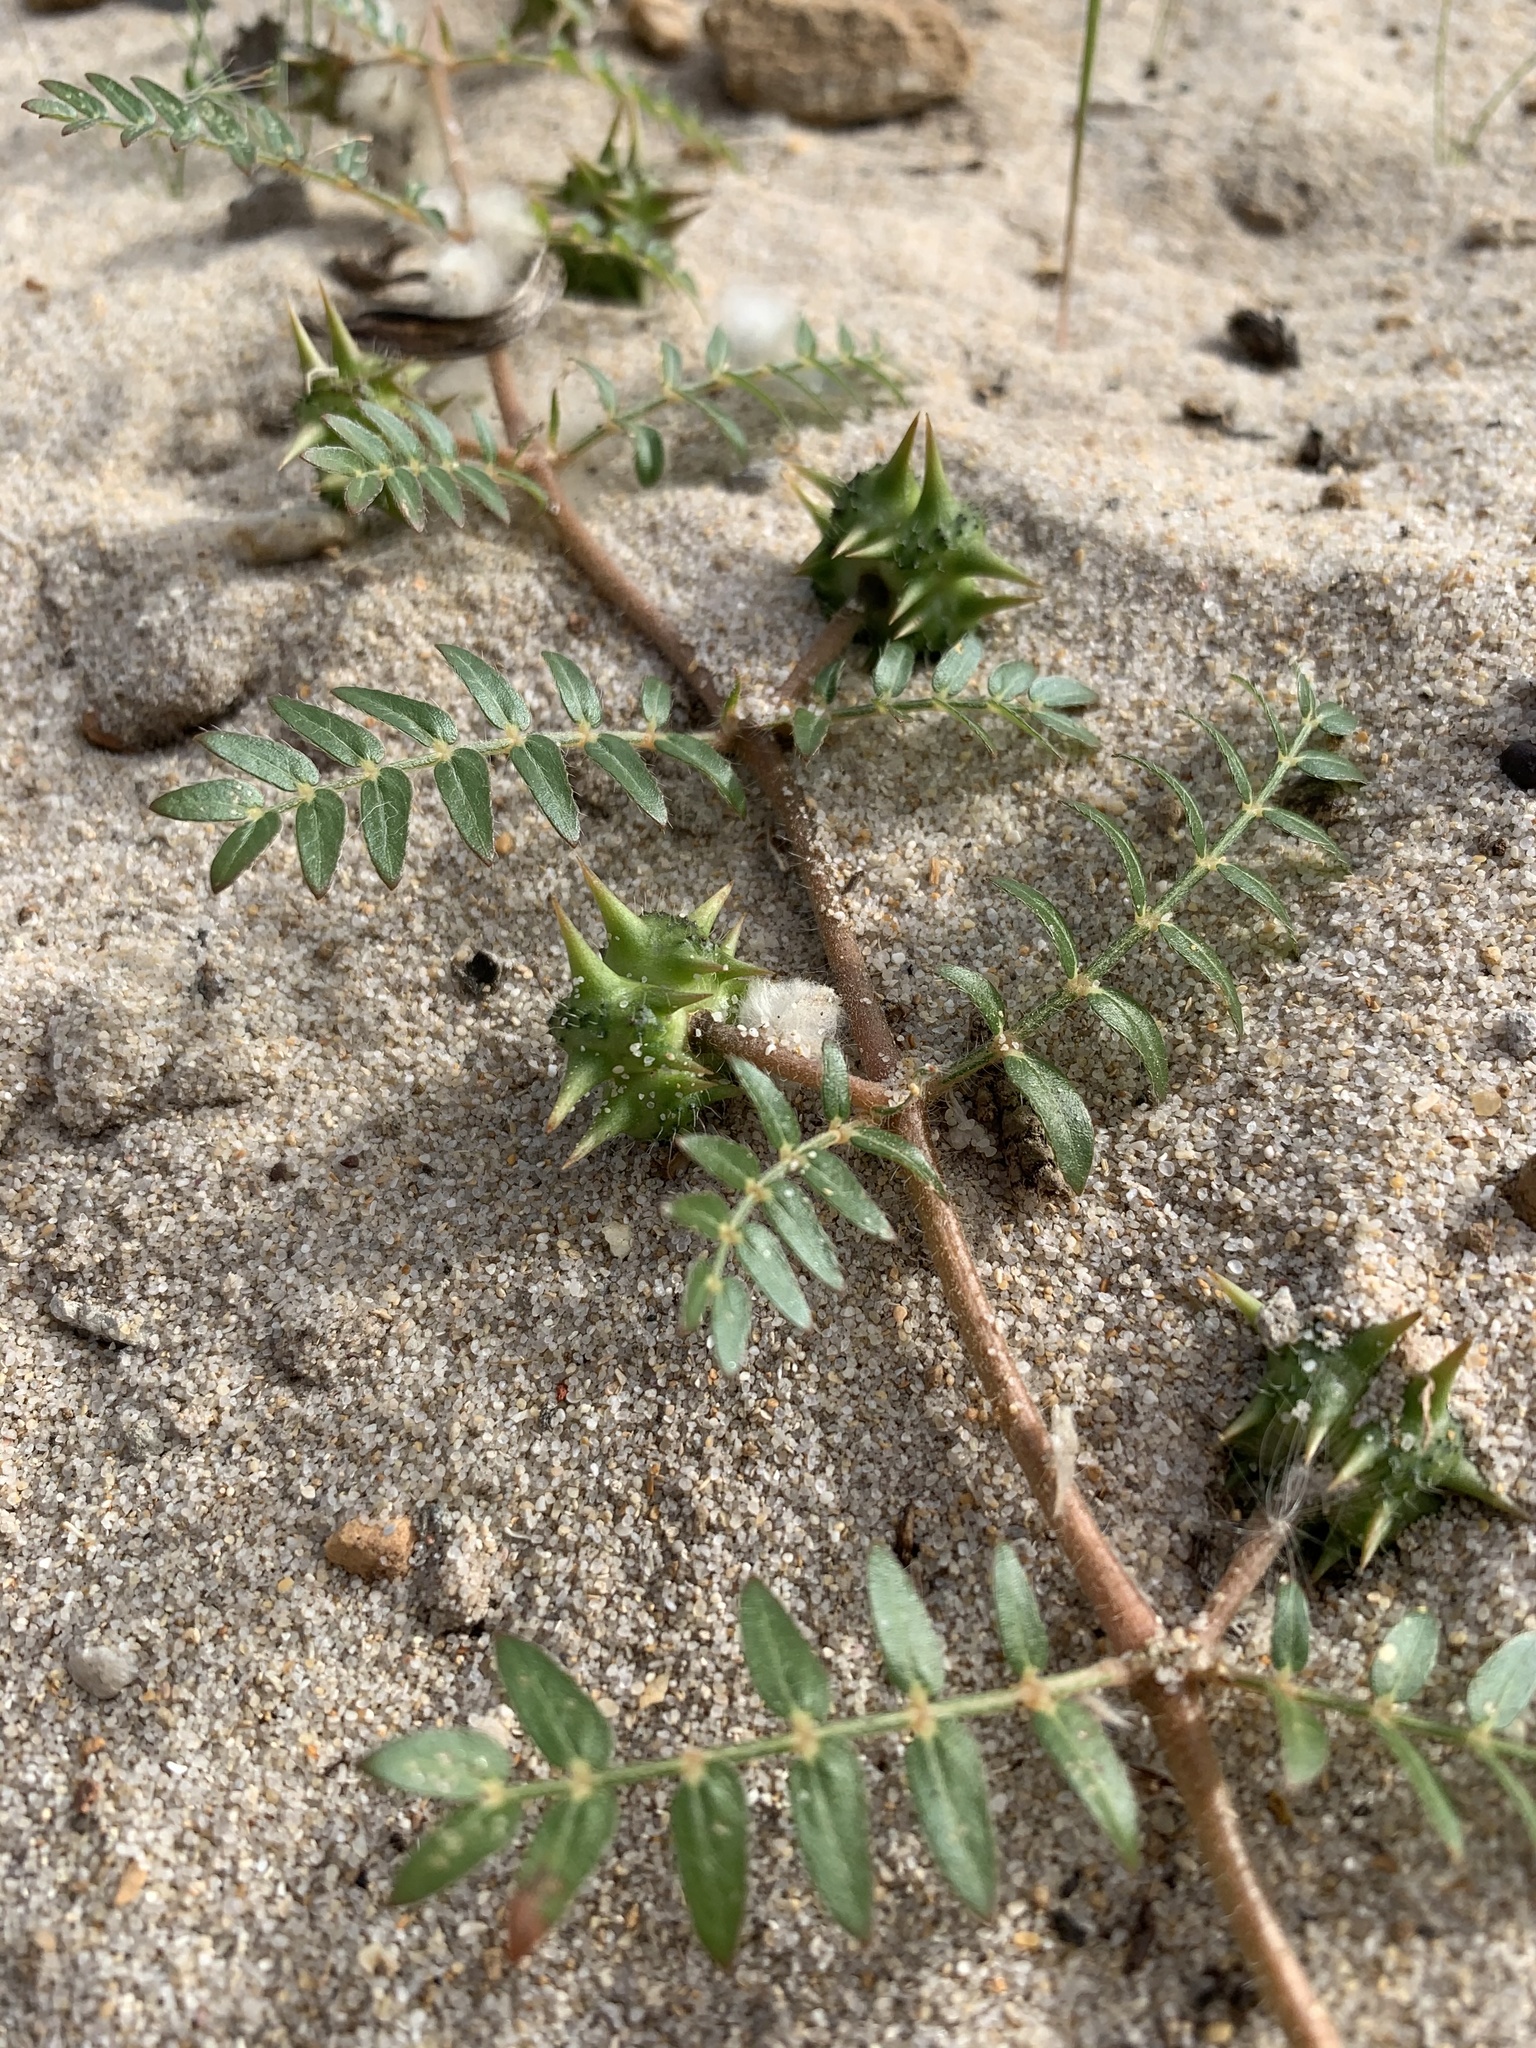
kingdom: Plantae
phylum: Tracheophyta
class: Magnoliopsida
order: Zygophyllales
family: Zygophyllaceae
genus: Tribulus
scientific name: Tribulus terrestris
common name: Puncturevine
